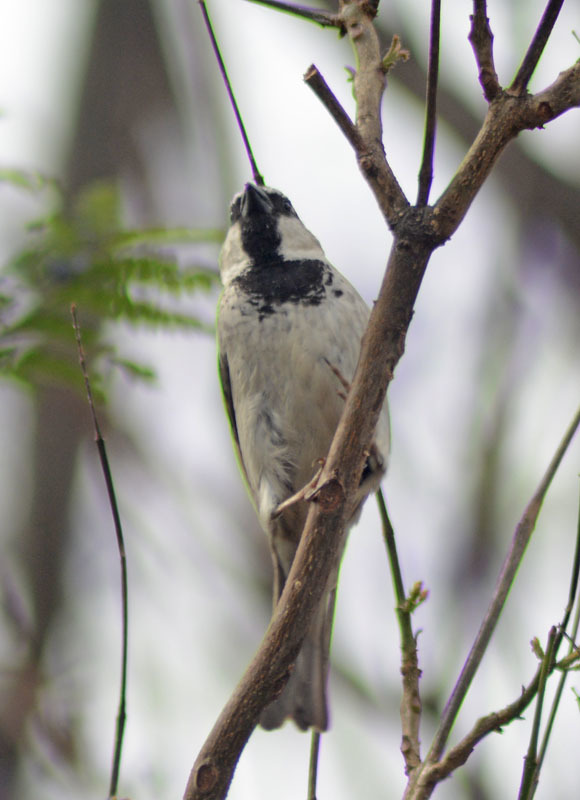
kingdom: Animalia
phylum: Chordata
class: Aves
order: Passeriformes
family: Passeridae
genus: Passer
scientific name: Passer domesticus
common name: House sparrow
